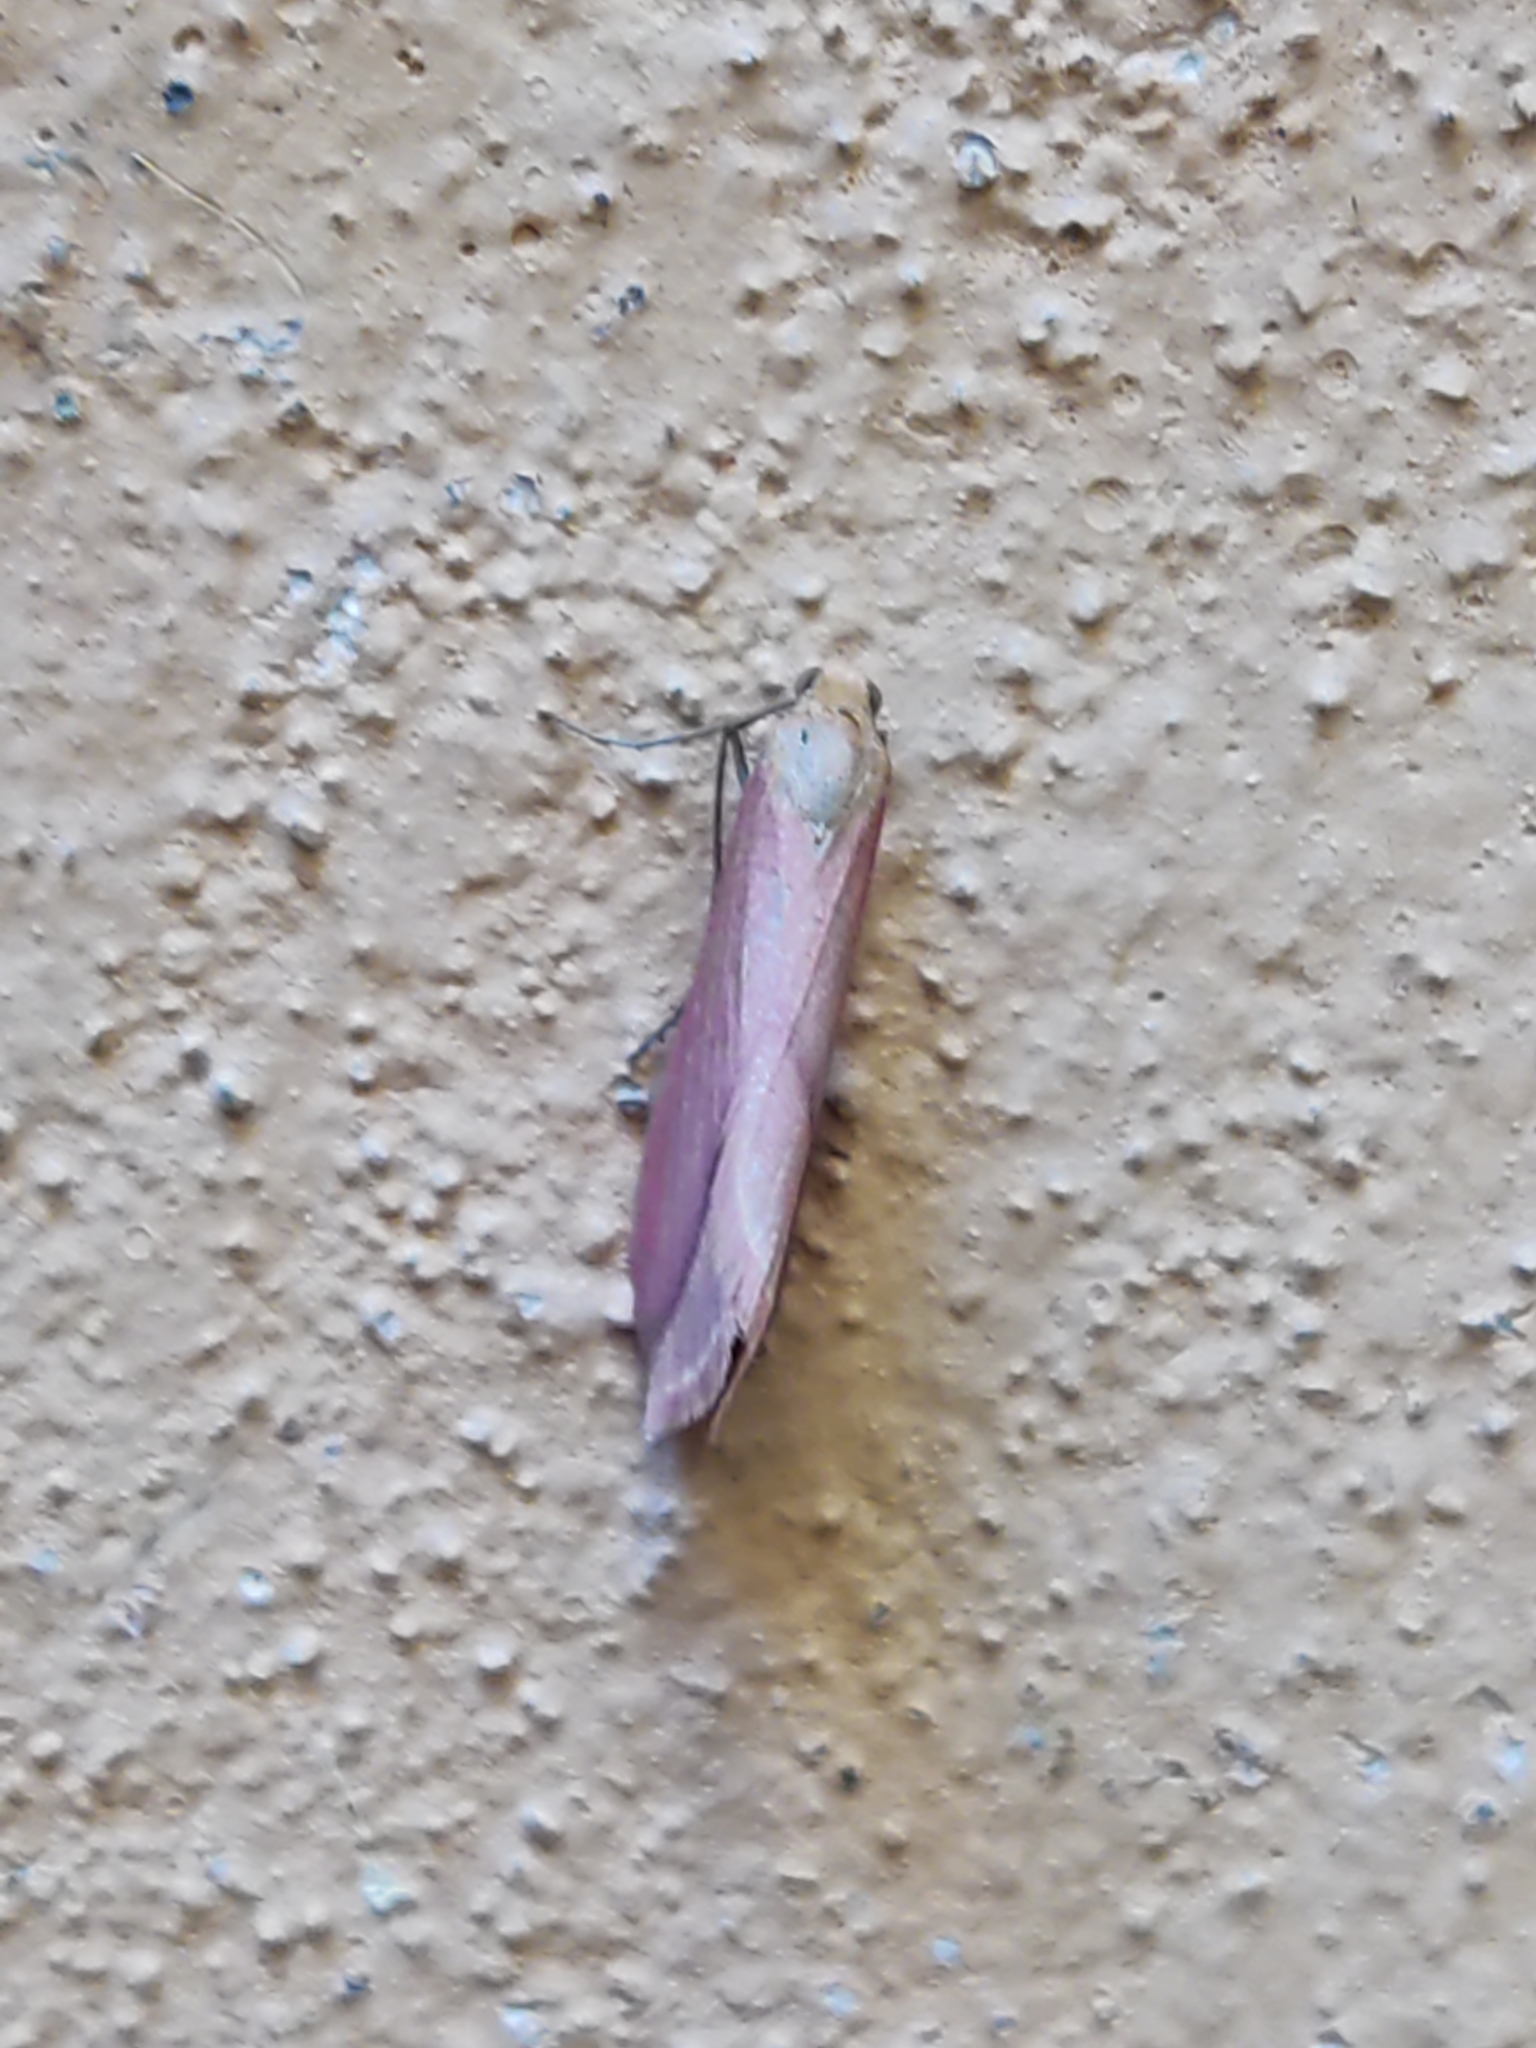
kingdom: Animalia
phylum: Arthropoda
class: Insecta
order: Lepidoptera
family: Geometridae
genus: Rhodometra
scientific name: Rhodometra sacraria
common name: Vestal
